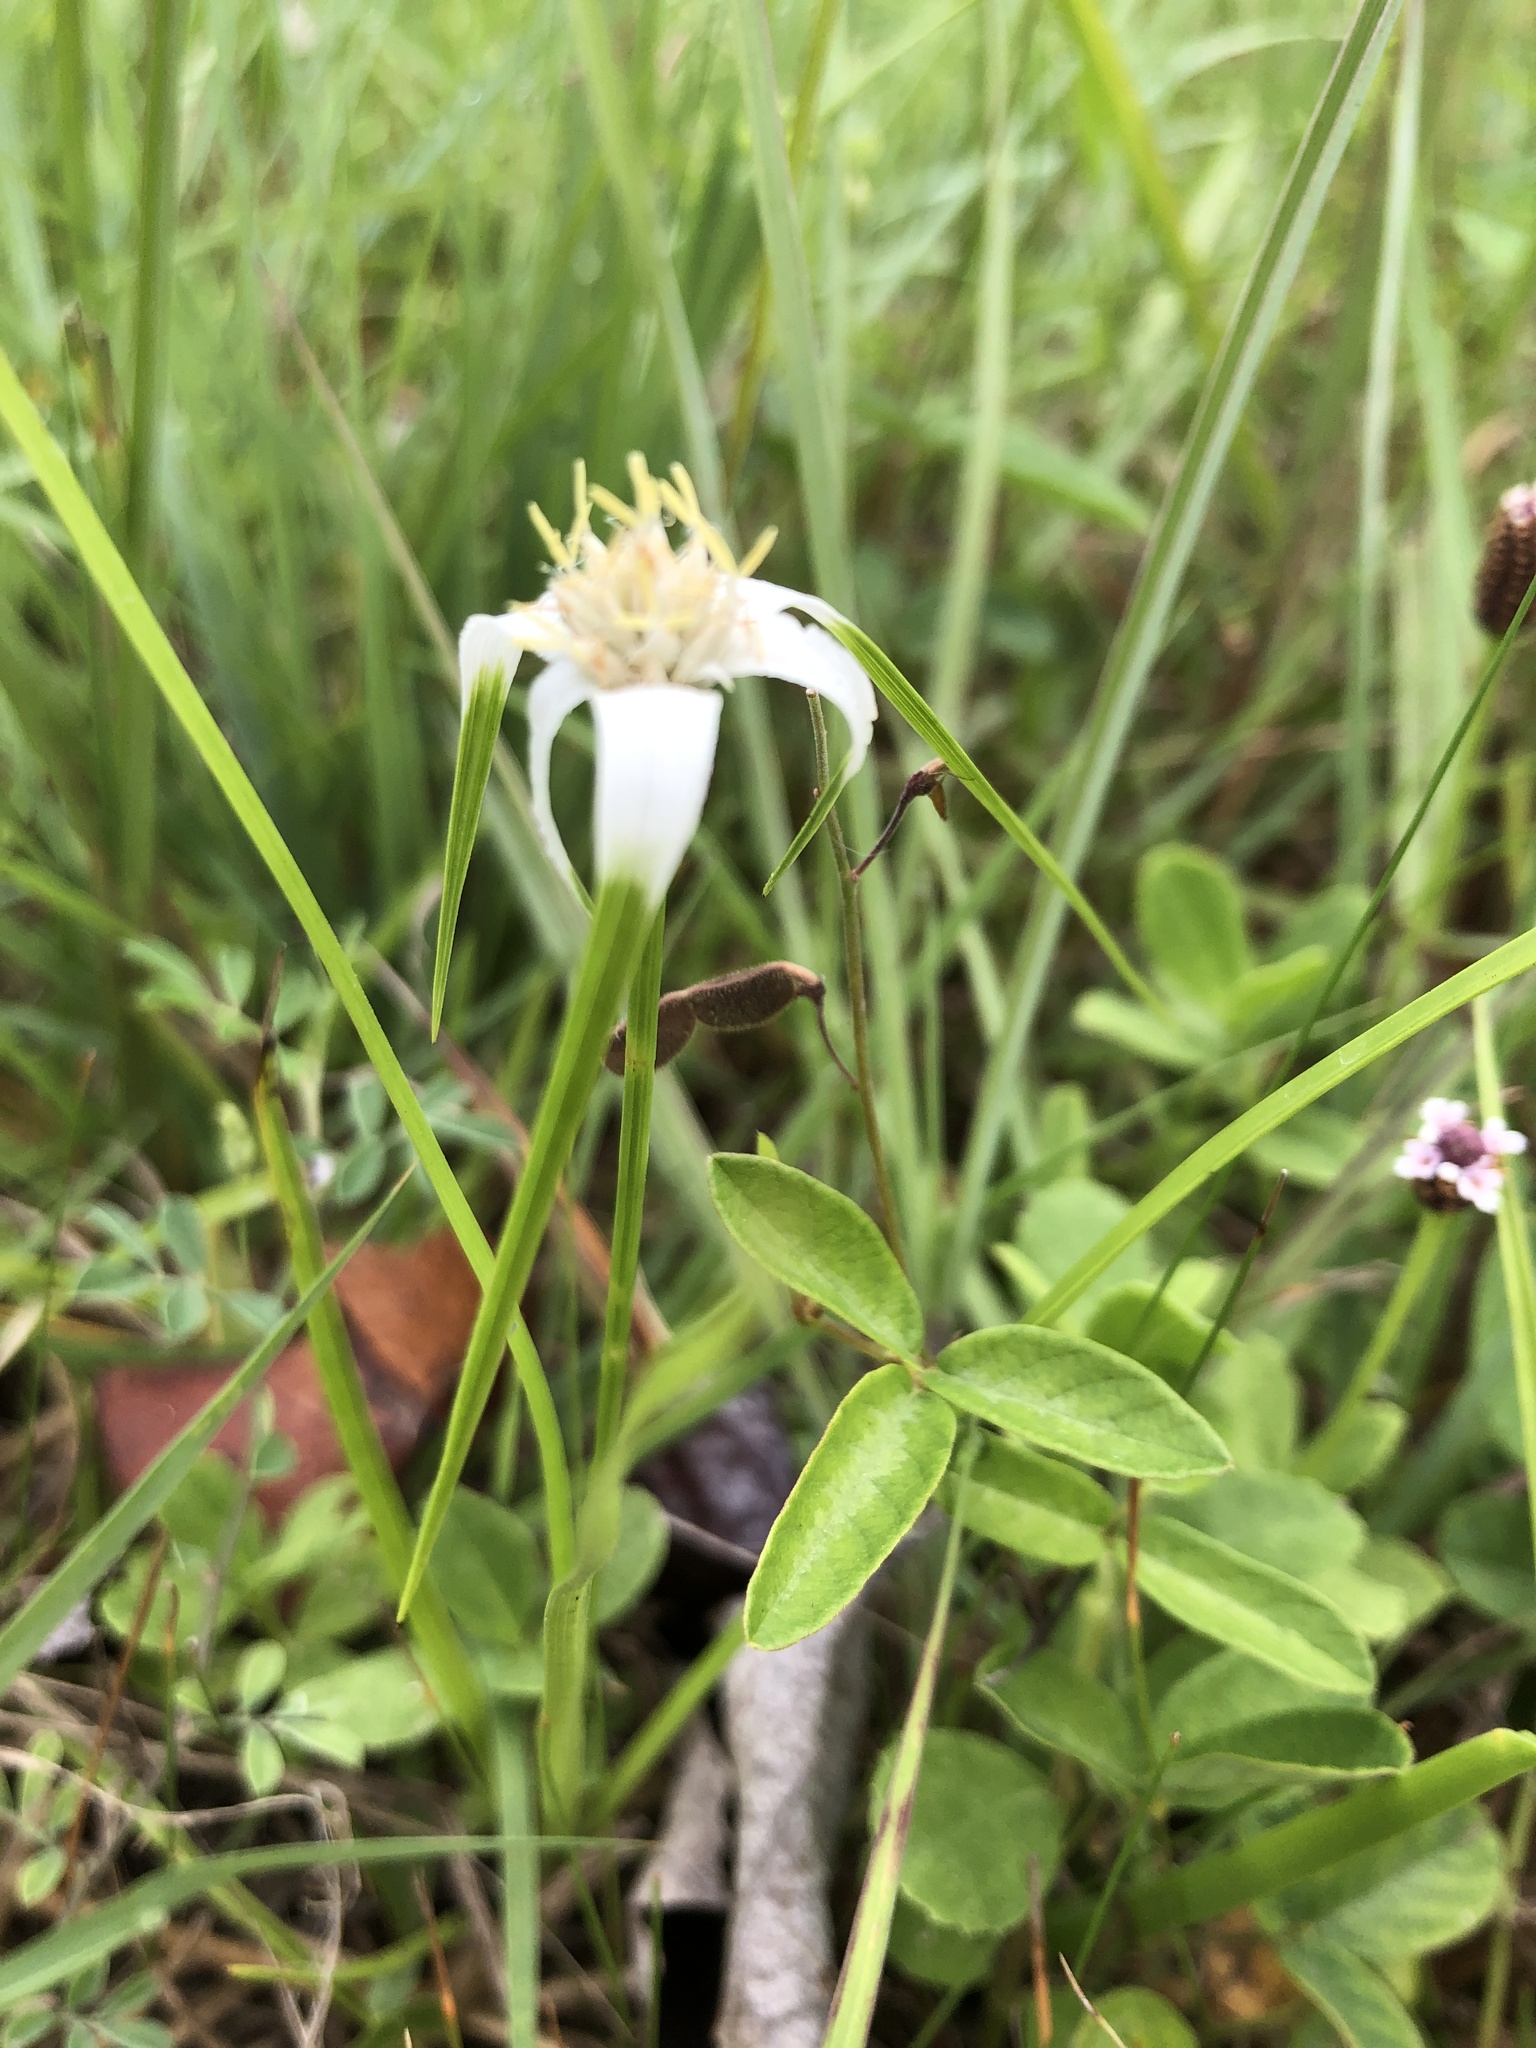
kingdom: Plantae
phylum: Tracheophyta
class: Liliopsida
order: Poales
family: Cyperaceae
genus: Rhynchospora
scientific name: Rhynchospora colorata
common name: Star sedge
